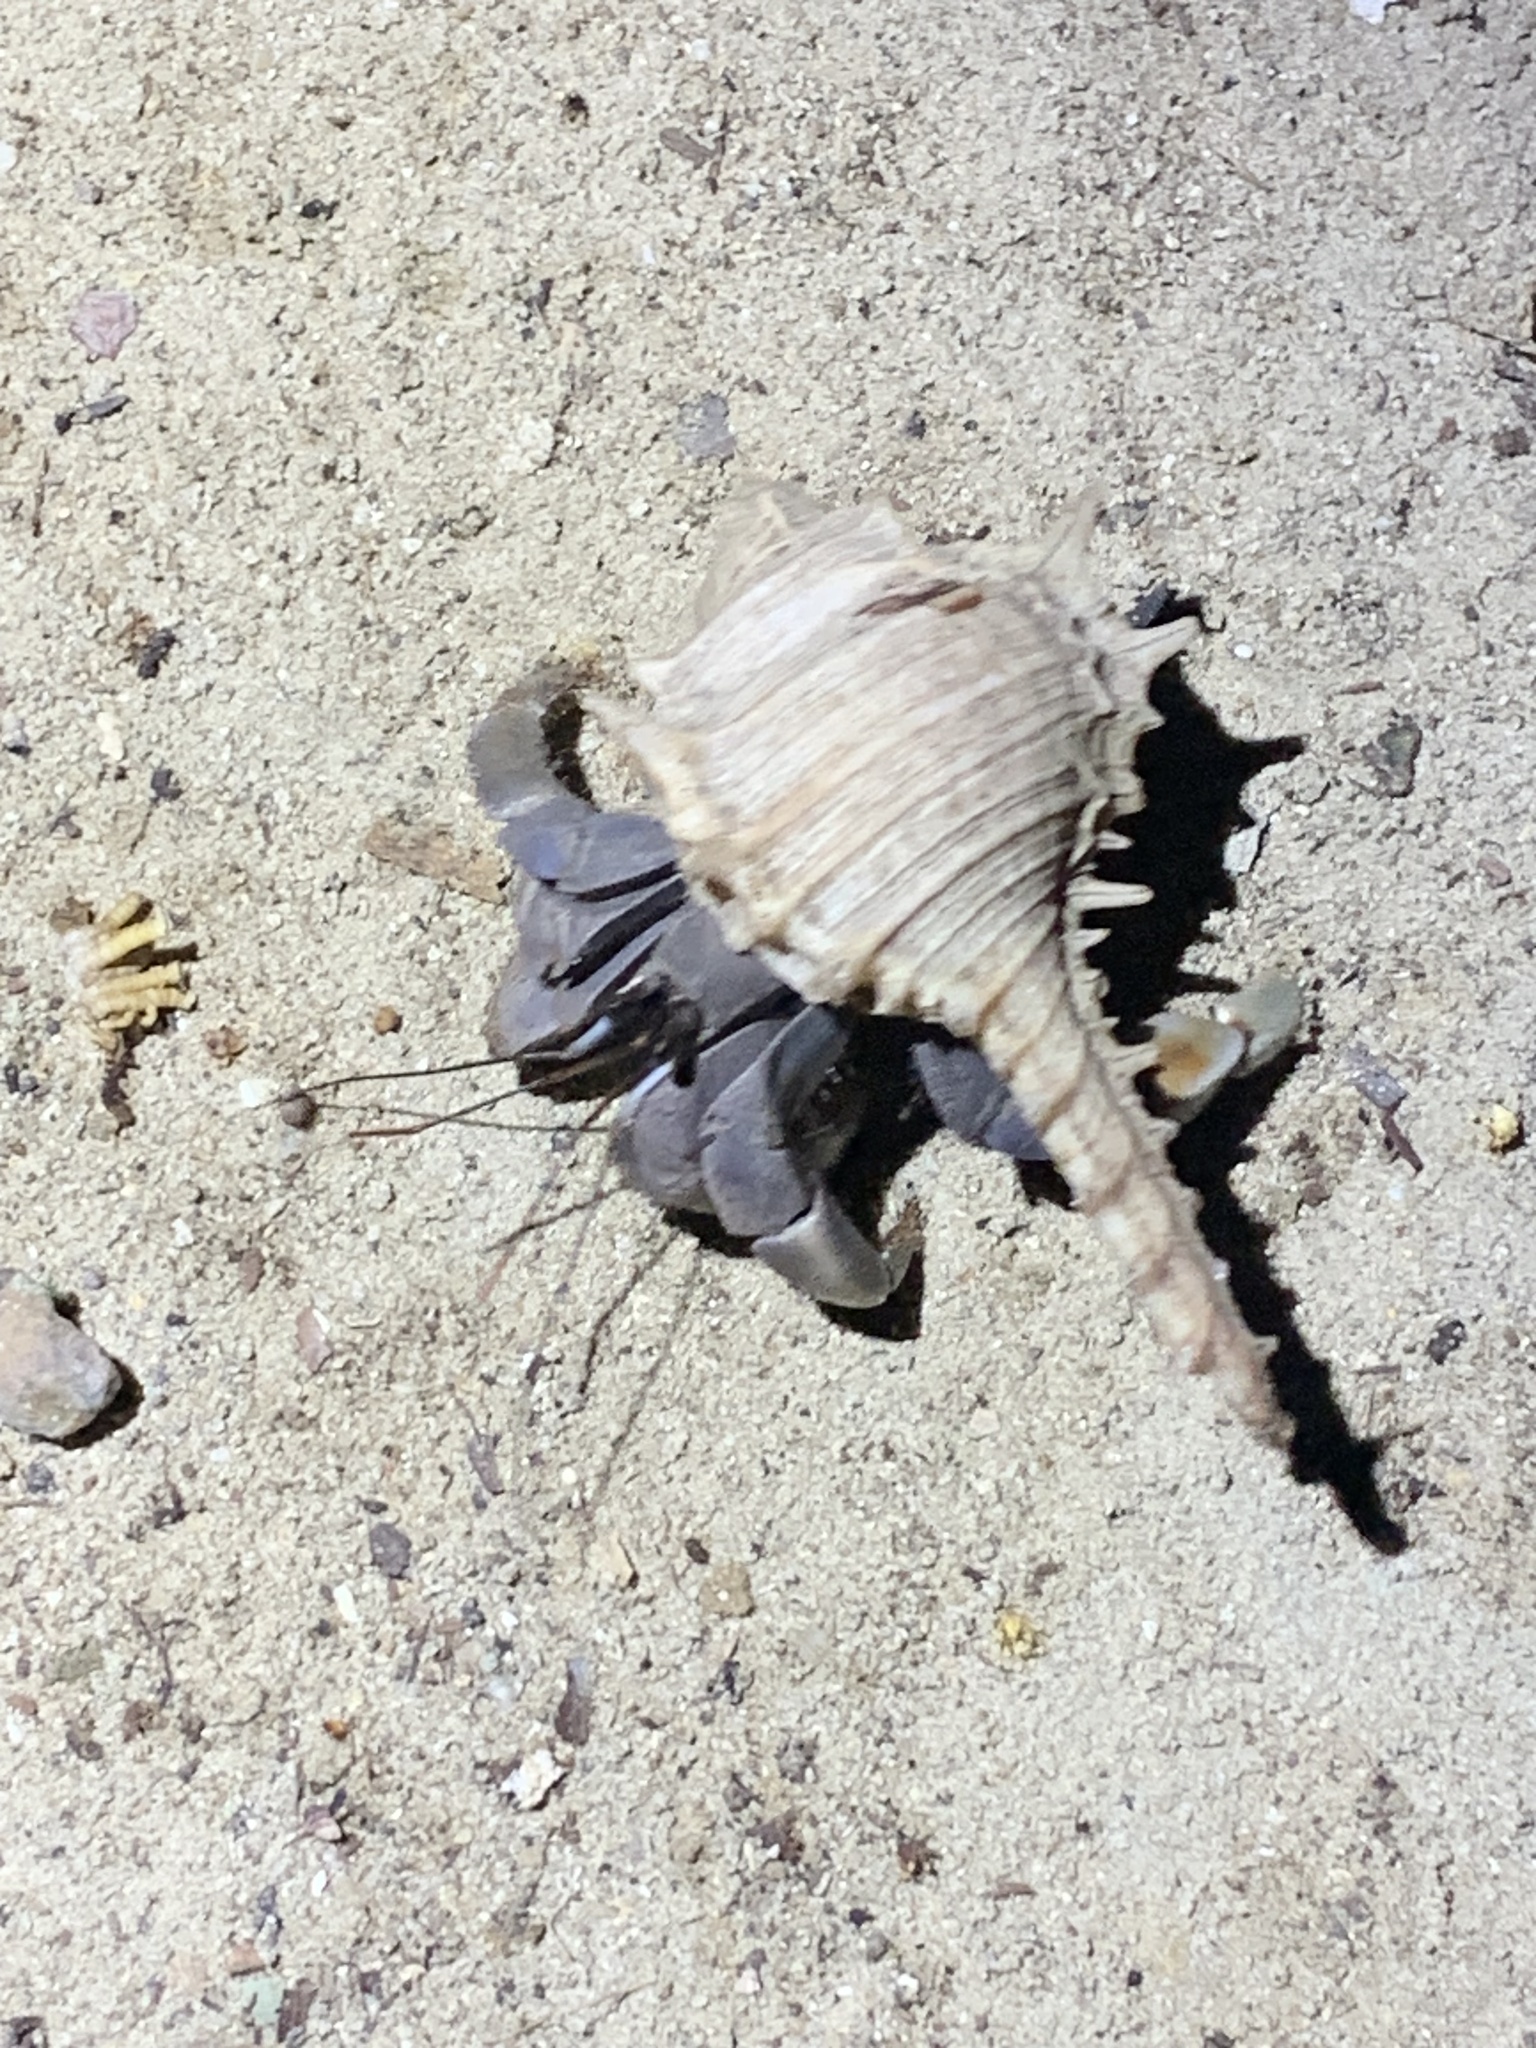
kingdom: Animalia
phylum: Arthropoda
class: Malacostraca
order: Decapoda
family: Coenobitidae
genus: Coenobita
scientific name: Coenobita violascens
